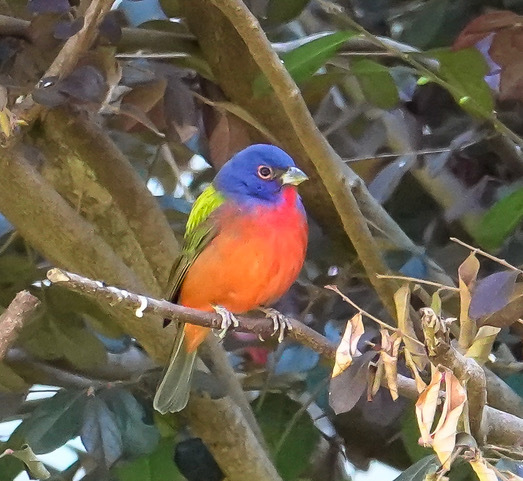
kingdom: Animalia
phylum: Chordata
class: Aves
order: Passeriformes
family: Cardinalidae
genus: Passerina
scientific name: Passerina ciris
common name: Painted bunting
